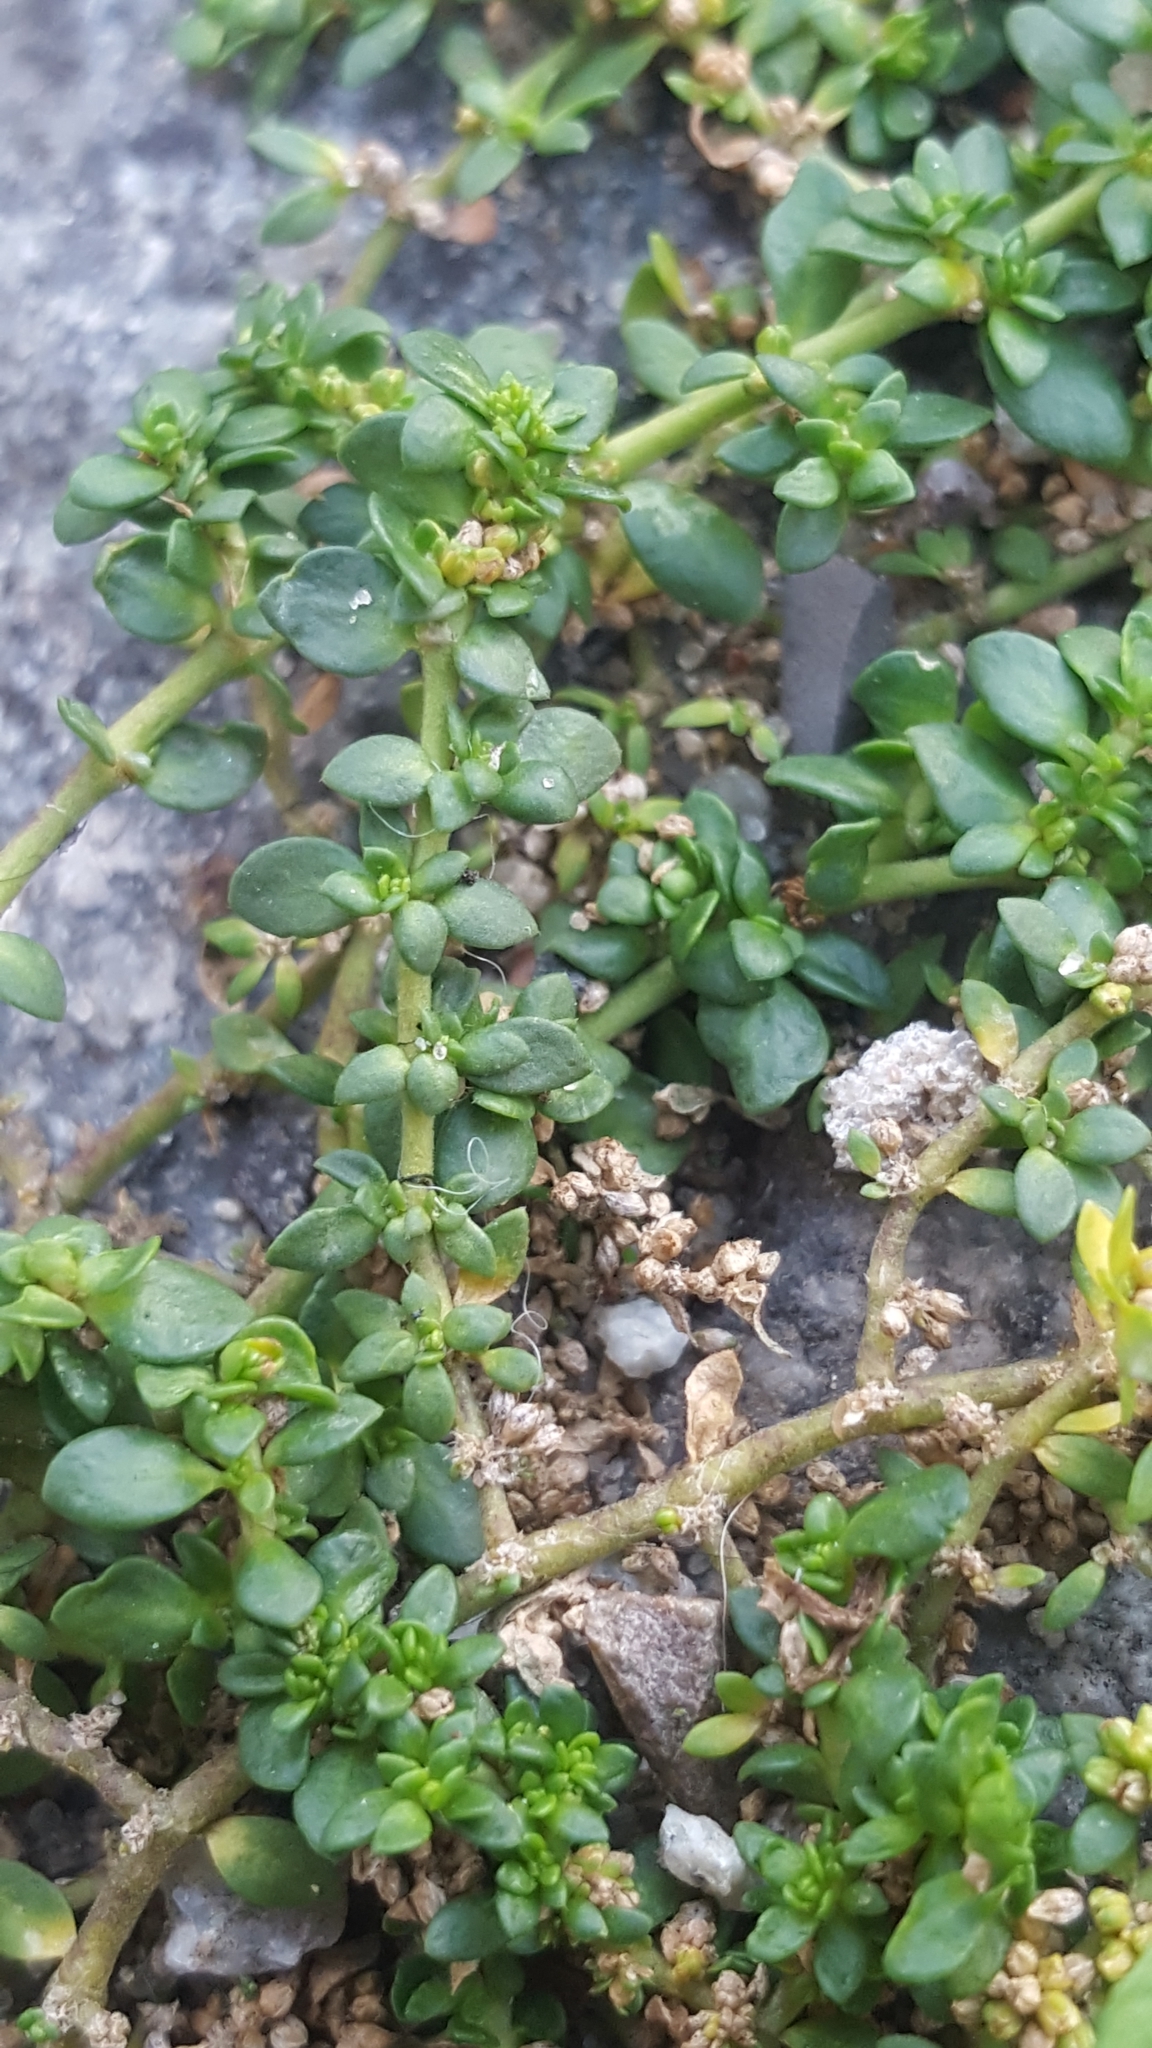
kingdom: Plantae
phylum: Tracheophyta
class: Magnoliopsida
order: Caryophyllales
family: Caryophyllaceae
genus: Herniaria
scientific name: Herniaria glabra
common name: Smooth rupturewort
